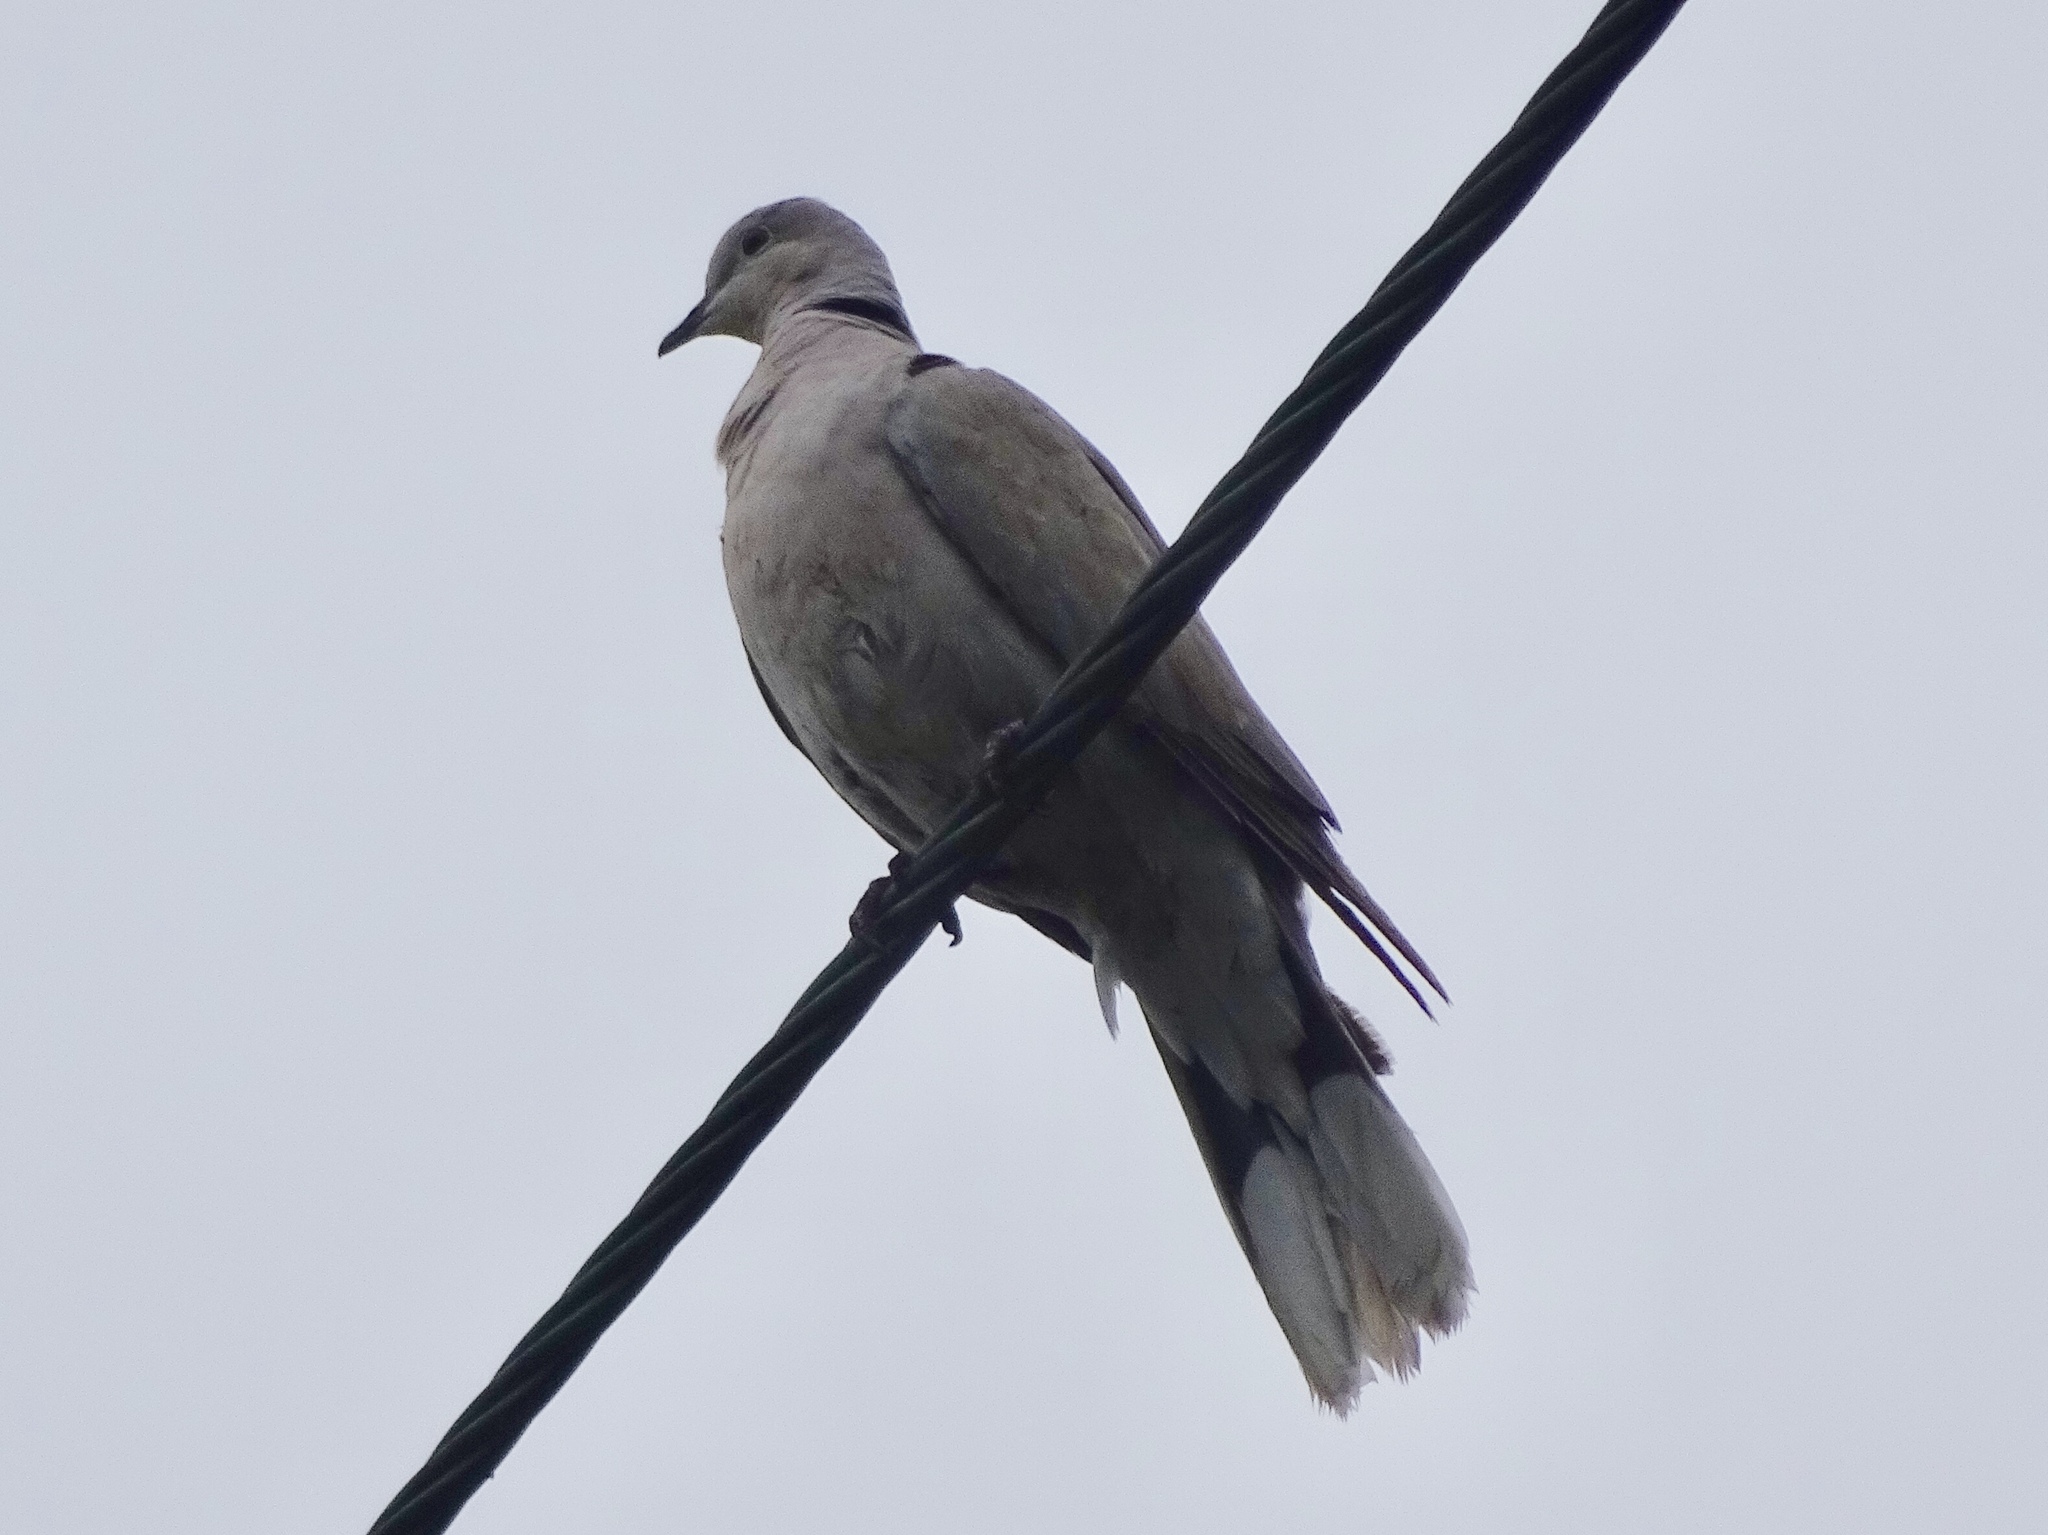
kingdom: Animalia
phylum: Chordata
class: Aves
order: Columbiformes
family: Columbidae
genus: Streptopelia
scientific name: Streptopelia decaocto
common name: Eurasian collared dove
